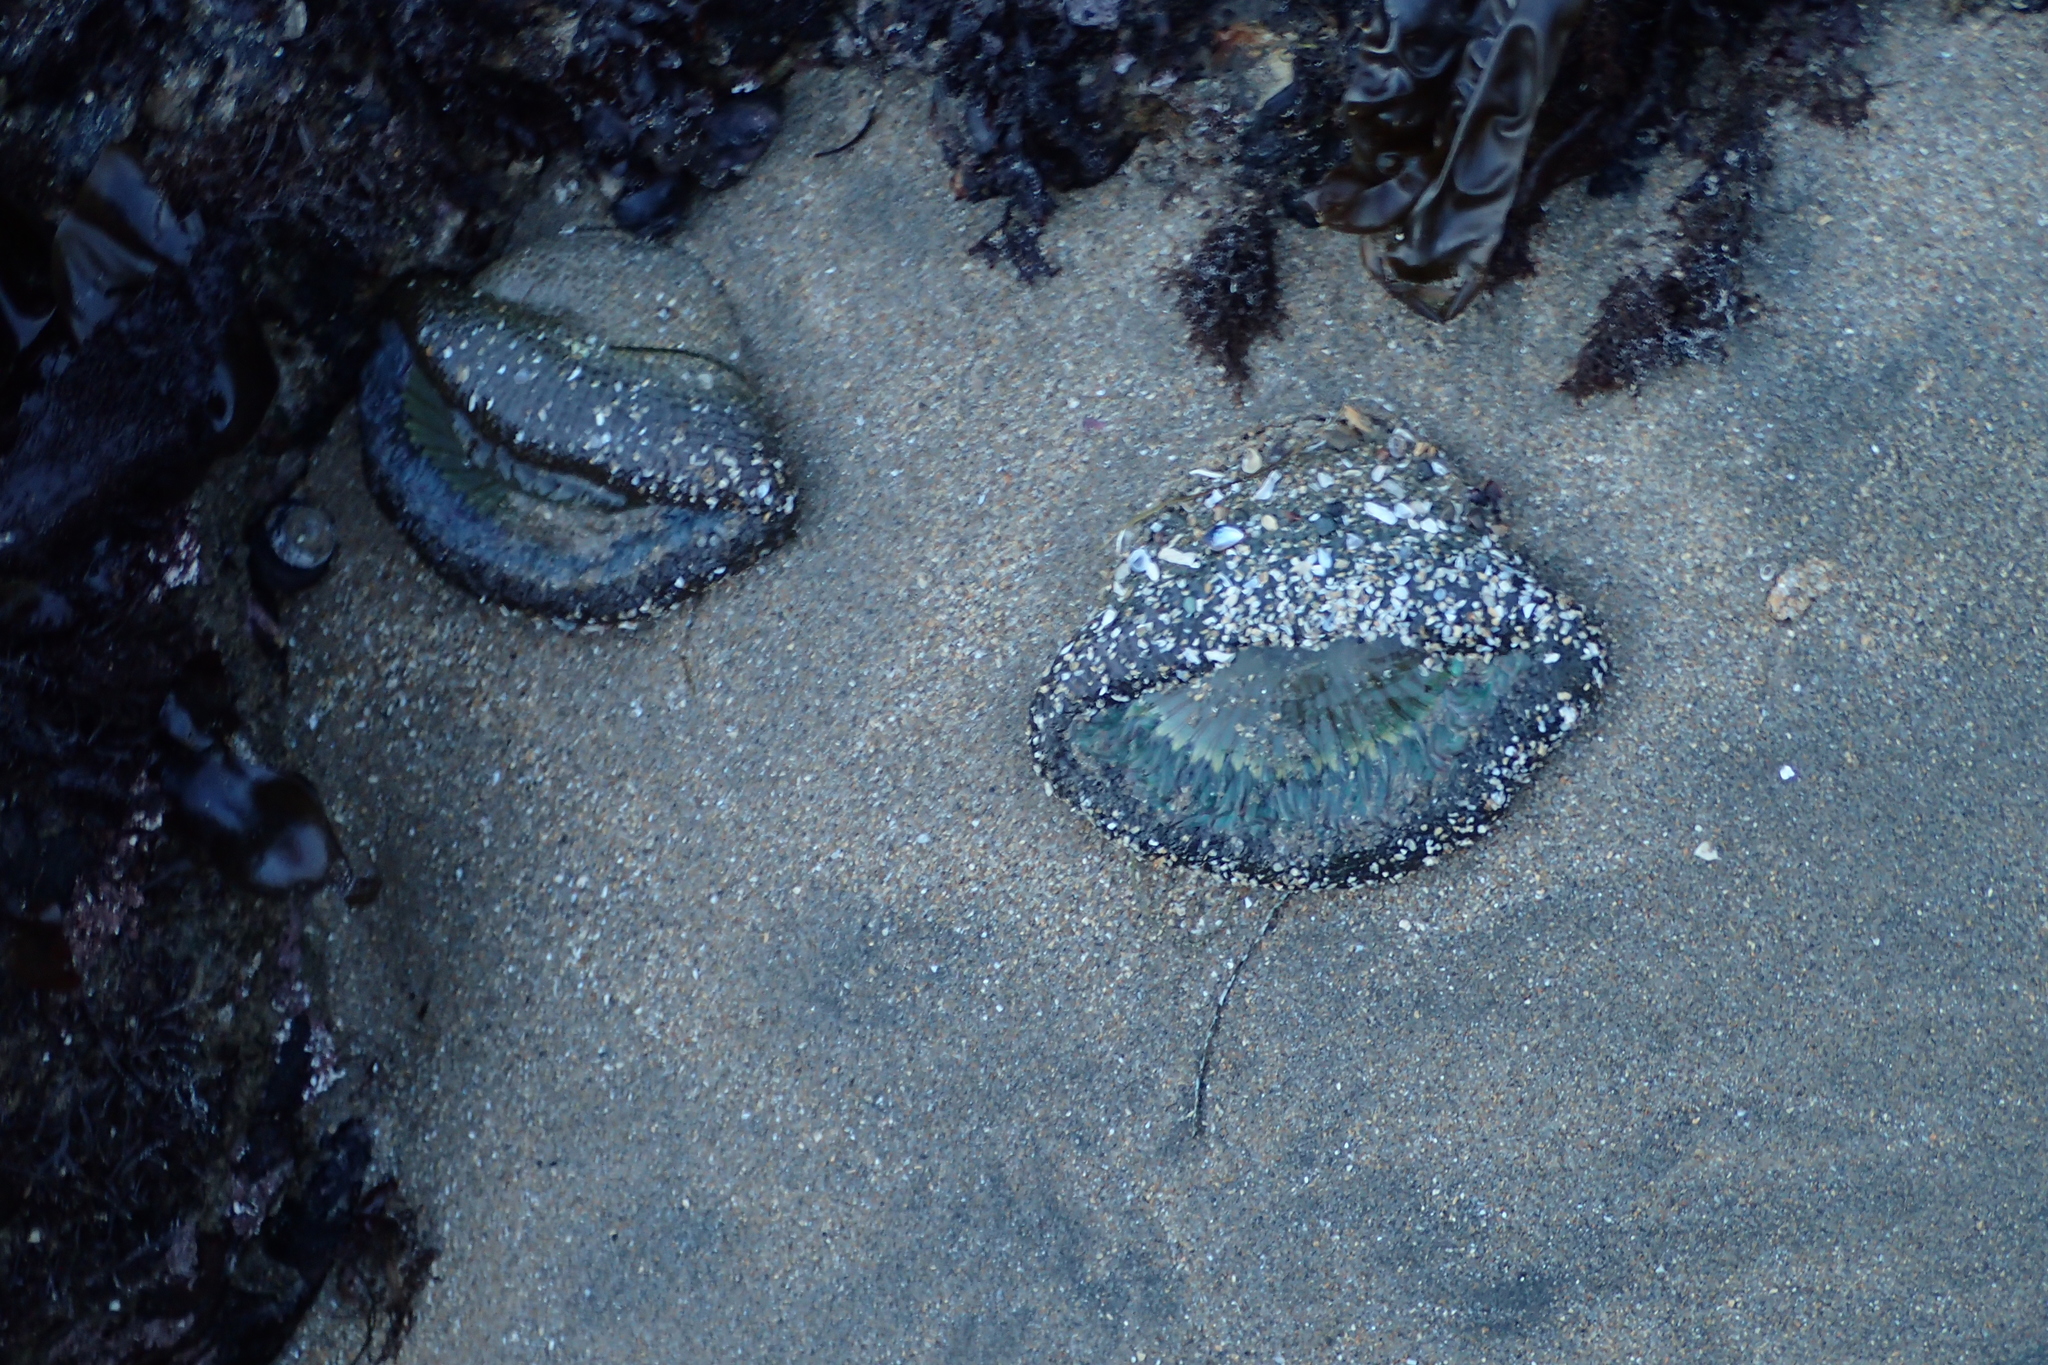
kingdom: Animalia
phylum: Cnidaria
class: Anthozoa
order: Actiniaria
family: Actiniidae
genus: Anthopleura
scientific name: Anthopleura sola
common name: Sun anemone
